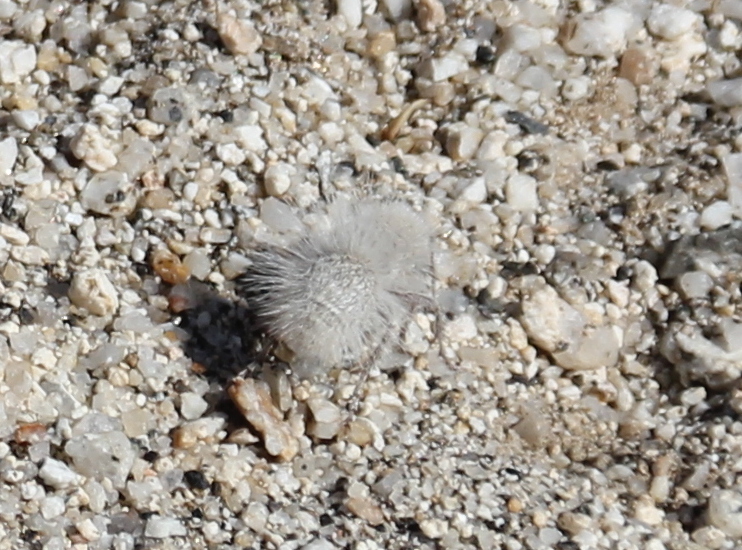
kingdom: Animalia
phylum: Arthropoda
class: Insecta
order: Hymenoptera
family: Mutillidae
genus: Dasymutilla
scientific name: Dasymutilla gloriosa
